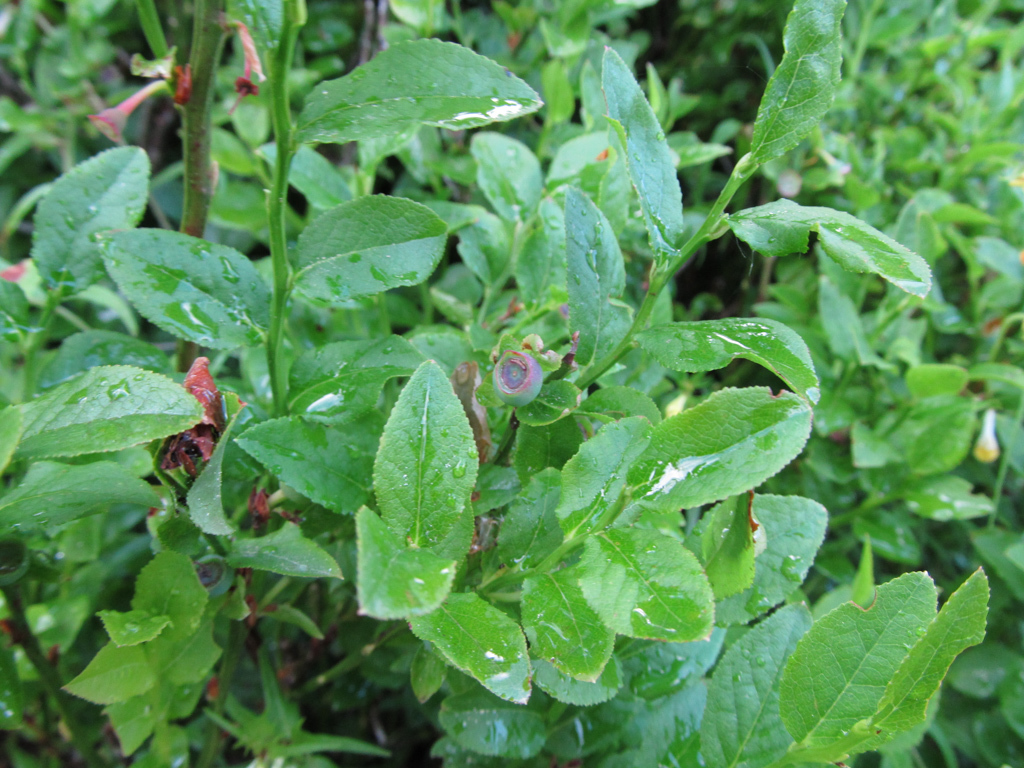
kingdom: Plantae
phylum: Tracheophyta
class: Magnoliopsida
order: Ericales
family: Ericaceae
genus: Vaccinium
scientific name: Vaccinium myrtillus
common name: Bilberry
